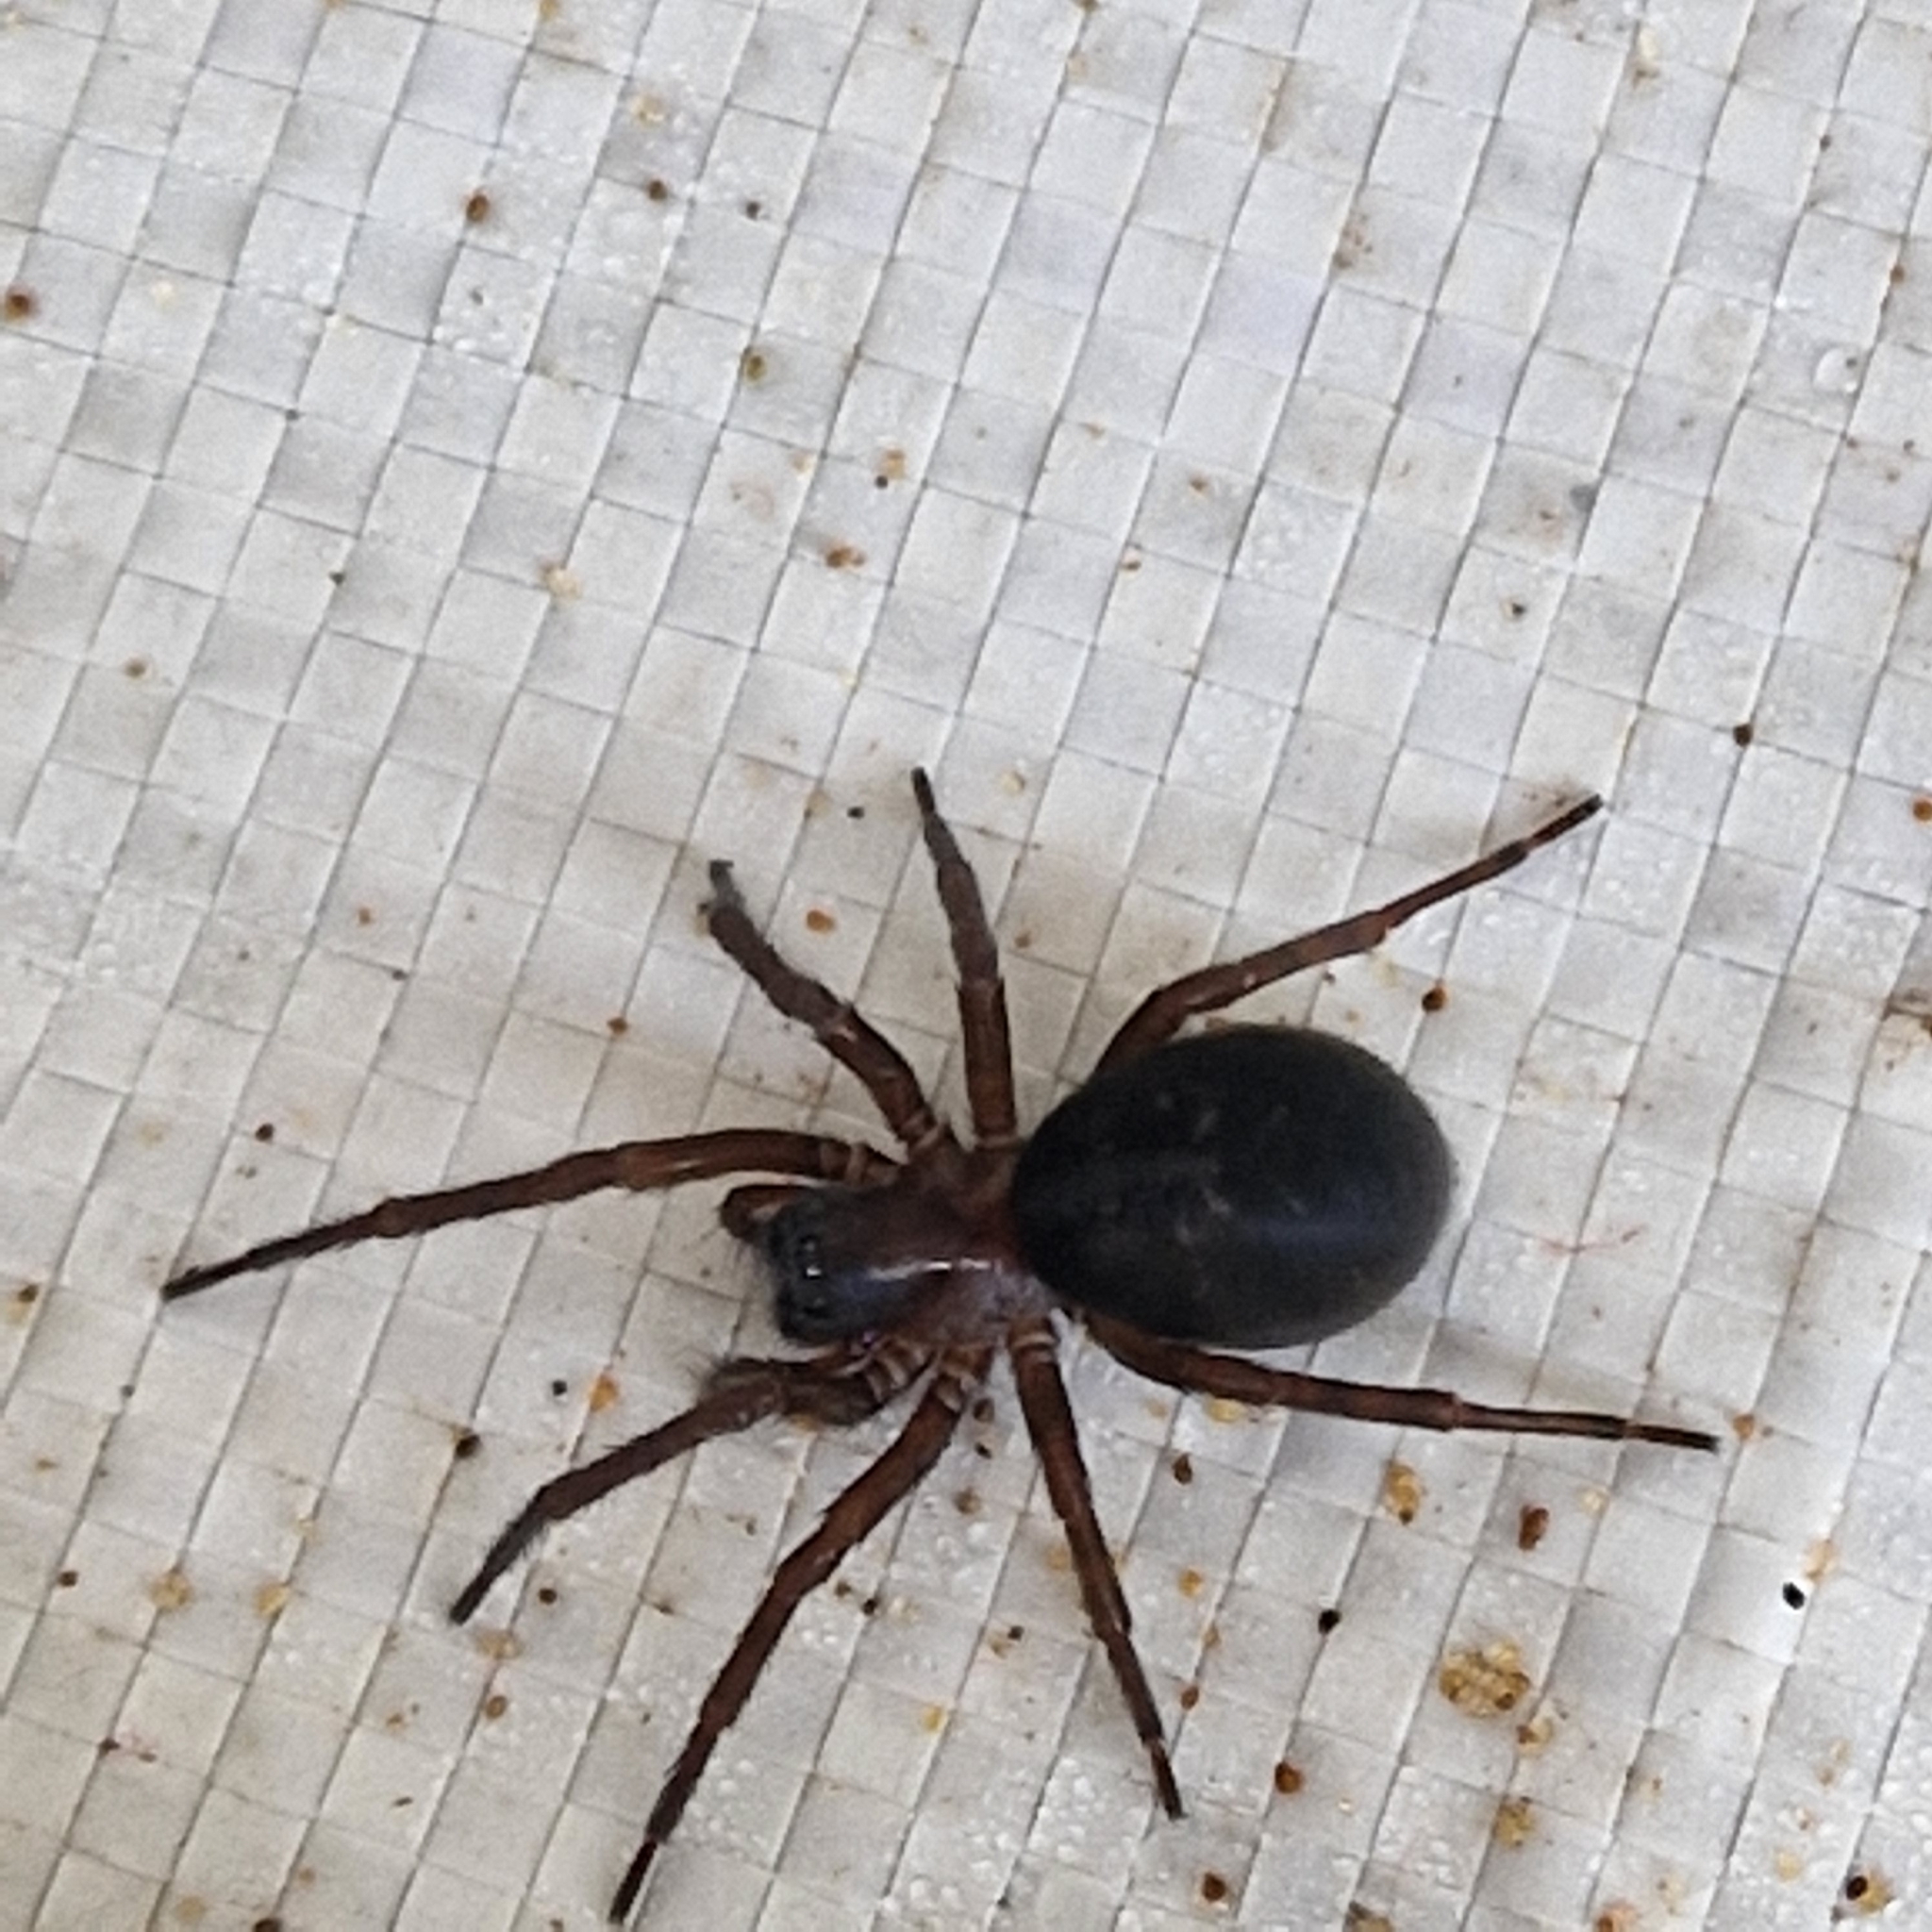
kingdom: Animalia
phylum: Arthropoda
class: Arachnida
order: Araneae
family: Amaurobiidae
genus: Amaurobius
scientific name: Amaurobius ferox
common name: Black laceweaver
